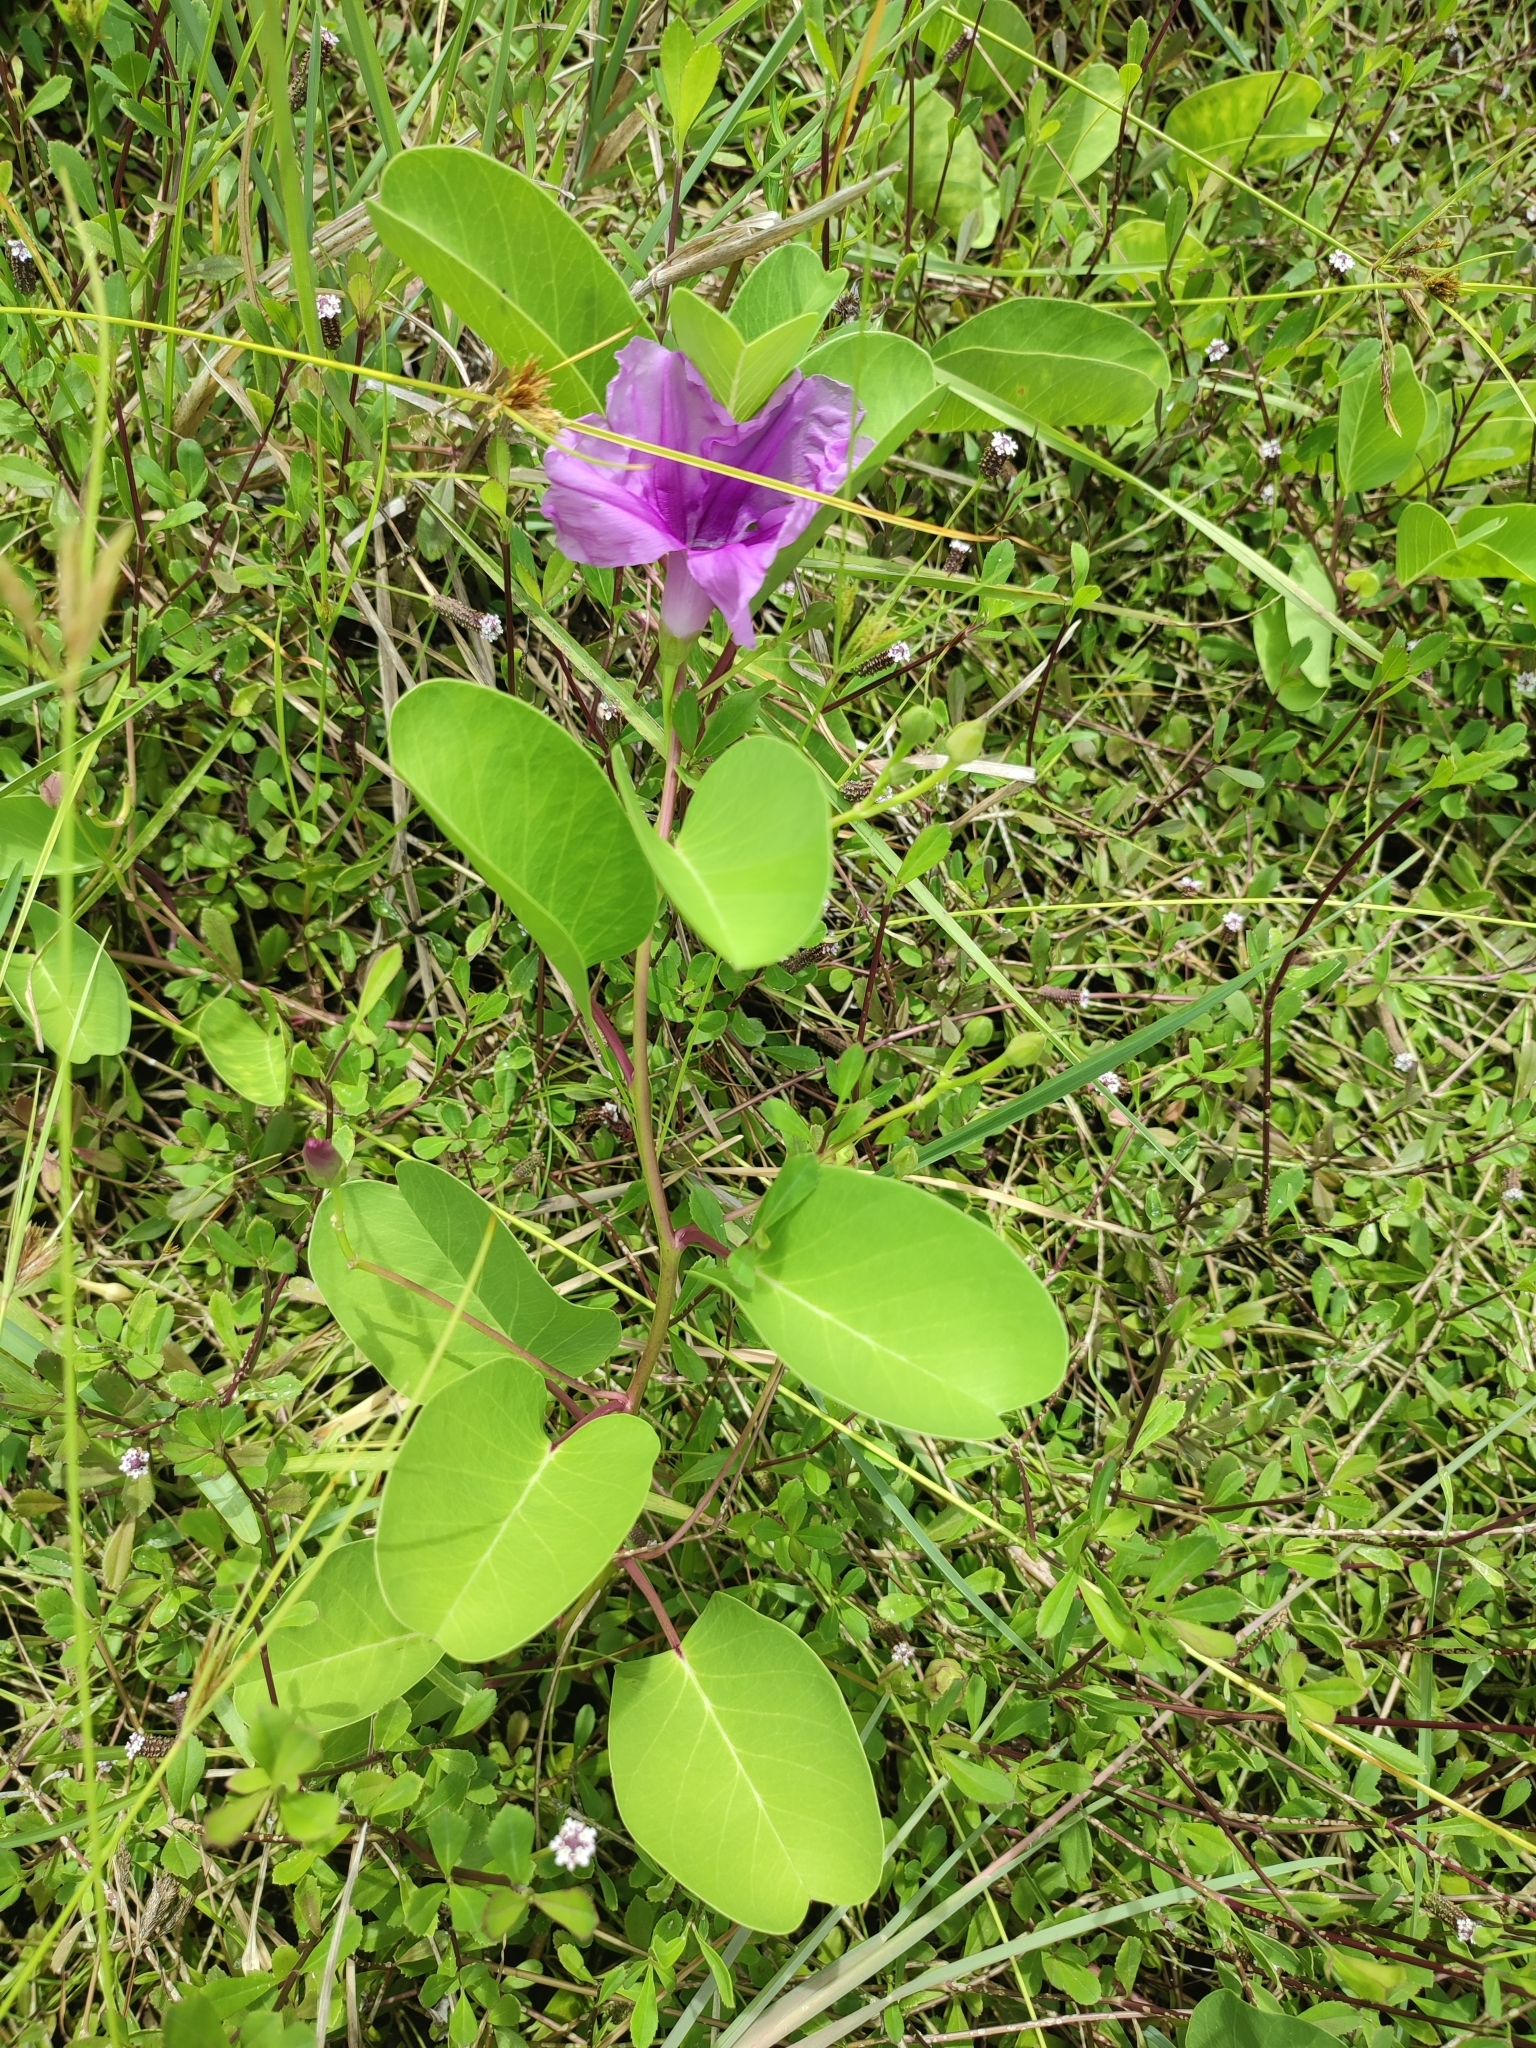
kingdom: Plantae
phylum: Tracheophyta
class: Magnoliopsida
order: Solanales
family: Convolvulaceae
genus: Ipomoea
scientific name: Ipomoea pes-caprae
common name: Beach morning glory
